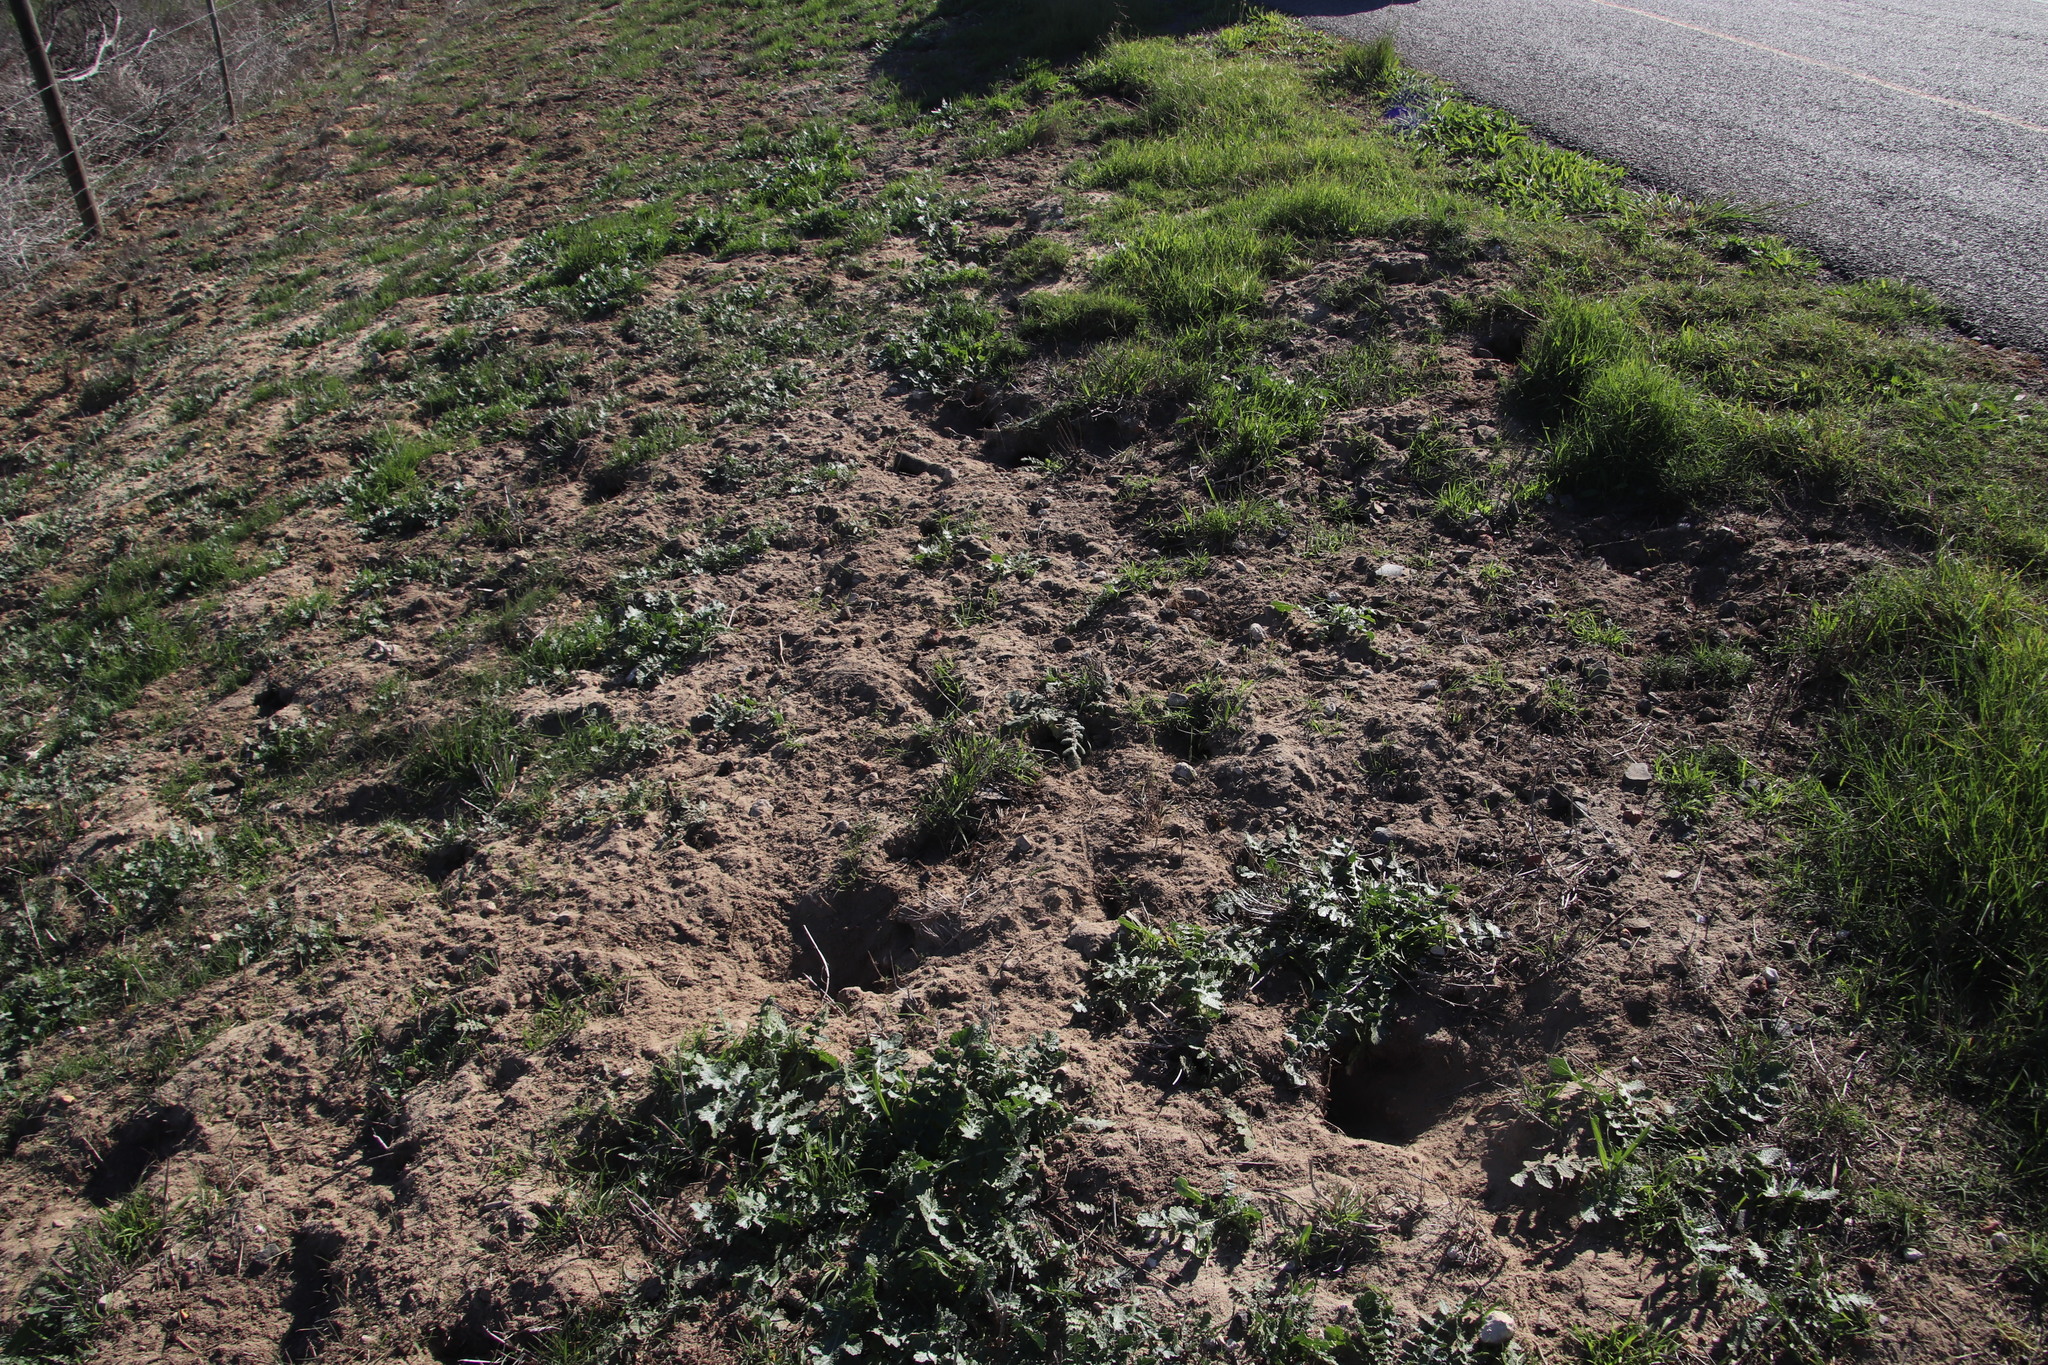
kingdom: Animalia
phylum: Chordata
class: Mammalia
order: Rodentia
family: Muridae
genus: Gerbilliscus
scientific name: Gerbilliscus afer
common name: Cape gerbil
